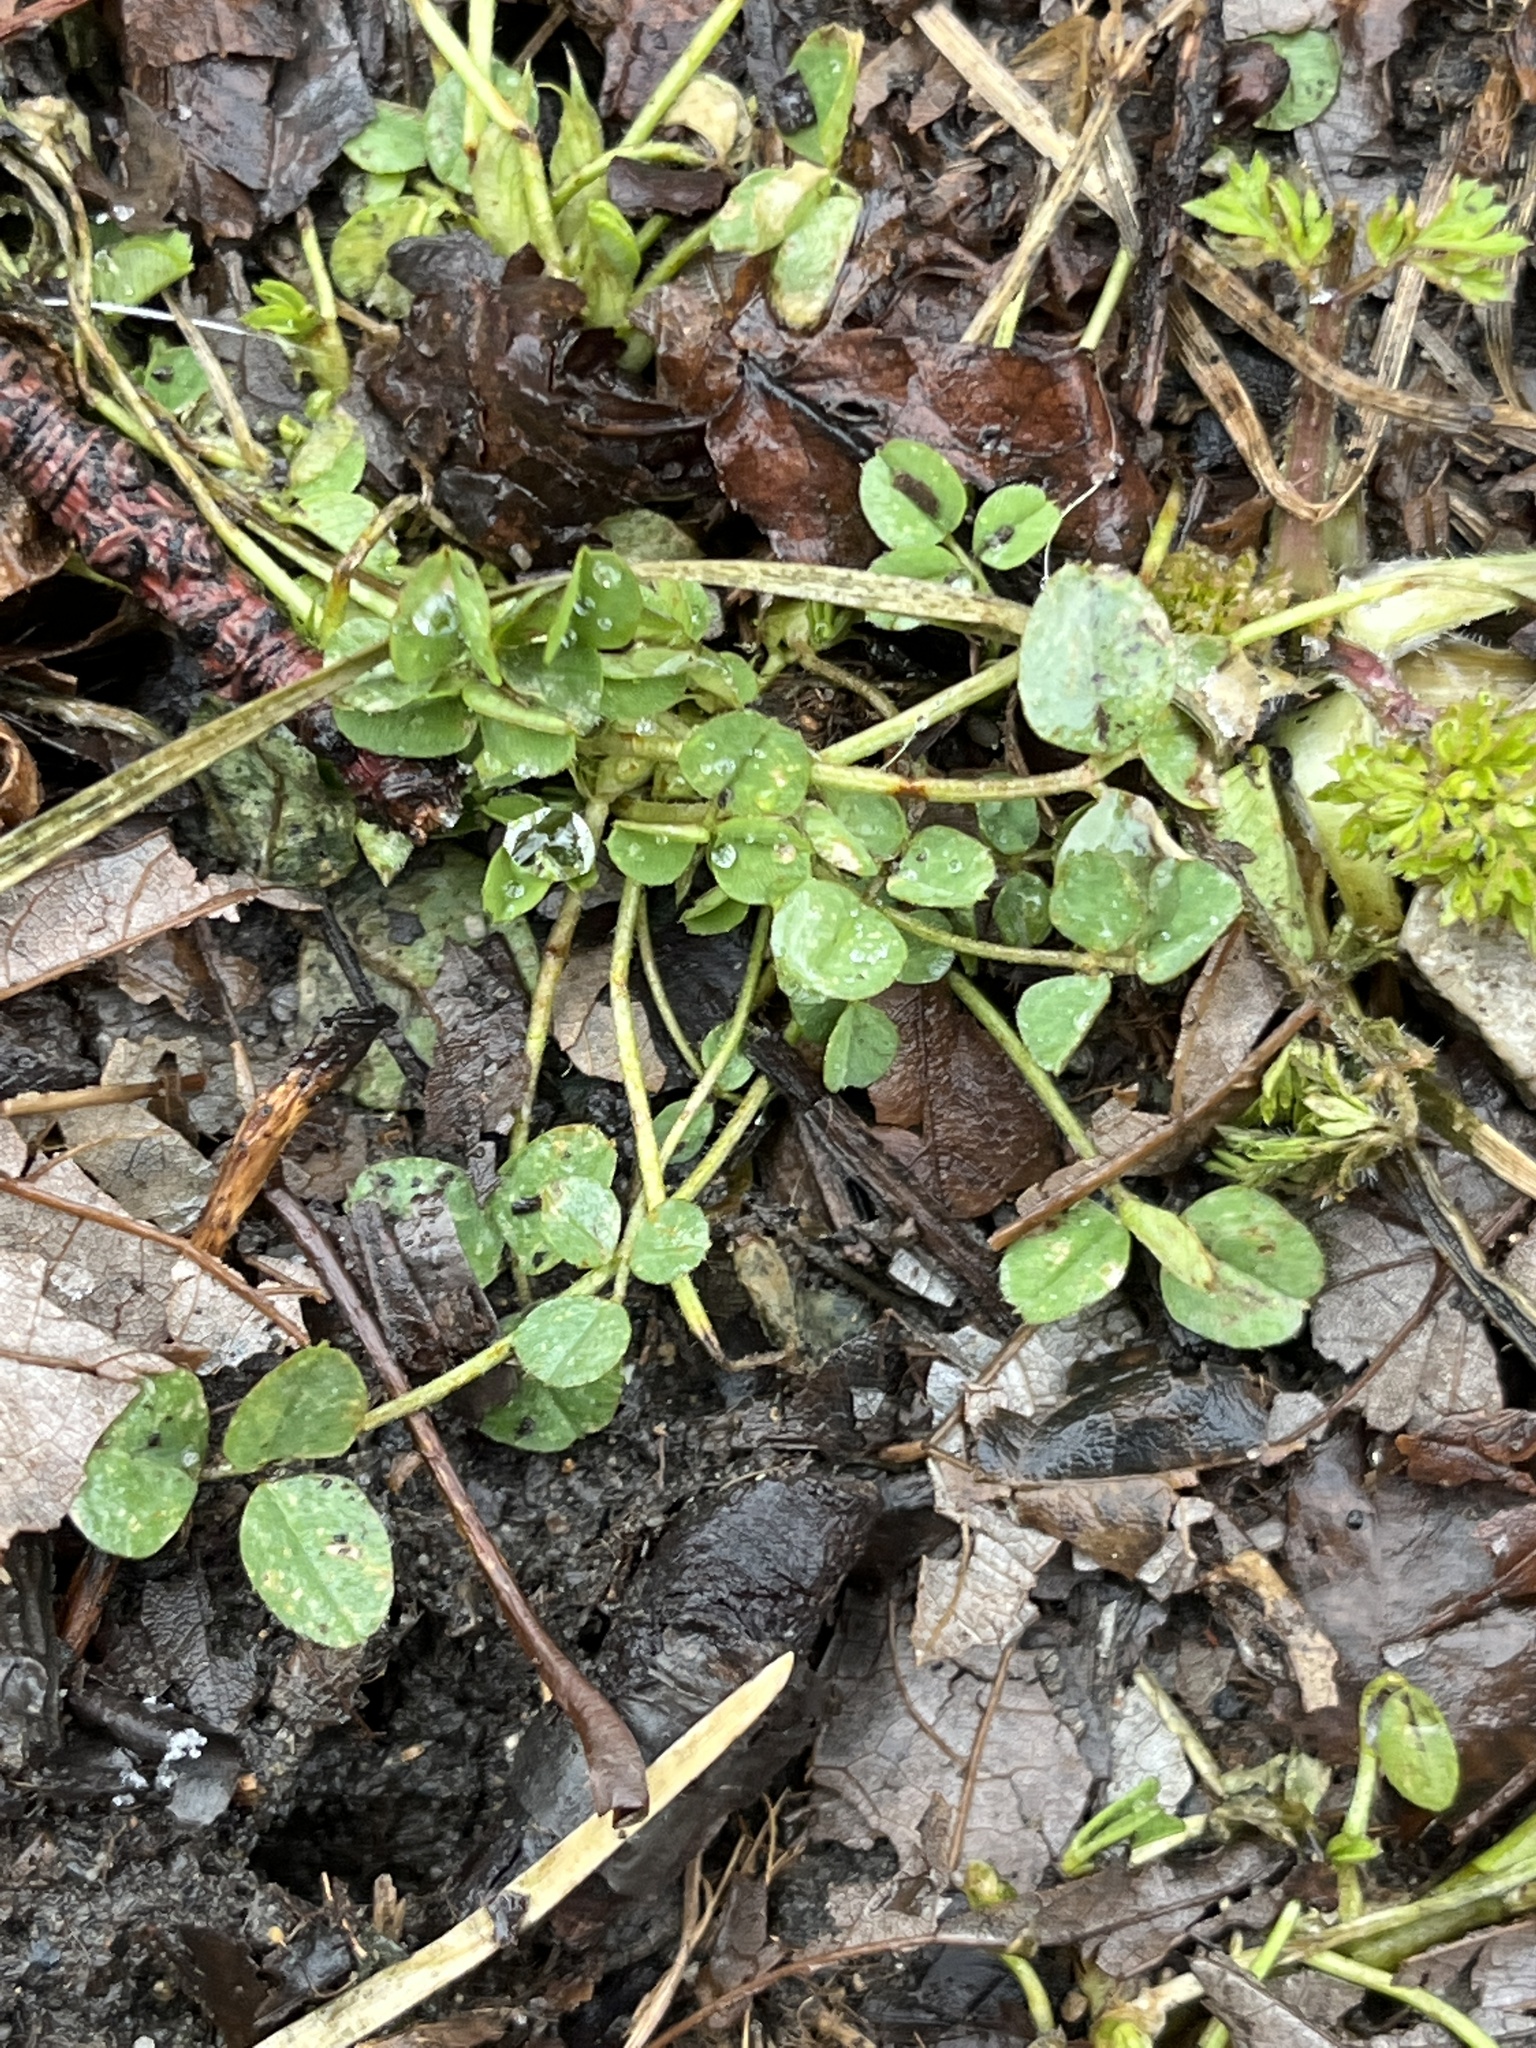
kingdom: Plantae
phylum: Tracheophyta
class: Magnoliopsida
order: Fabales
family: Fabaceae
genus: Medicago
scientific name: Medicago lupulina
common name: Black medick
